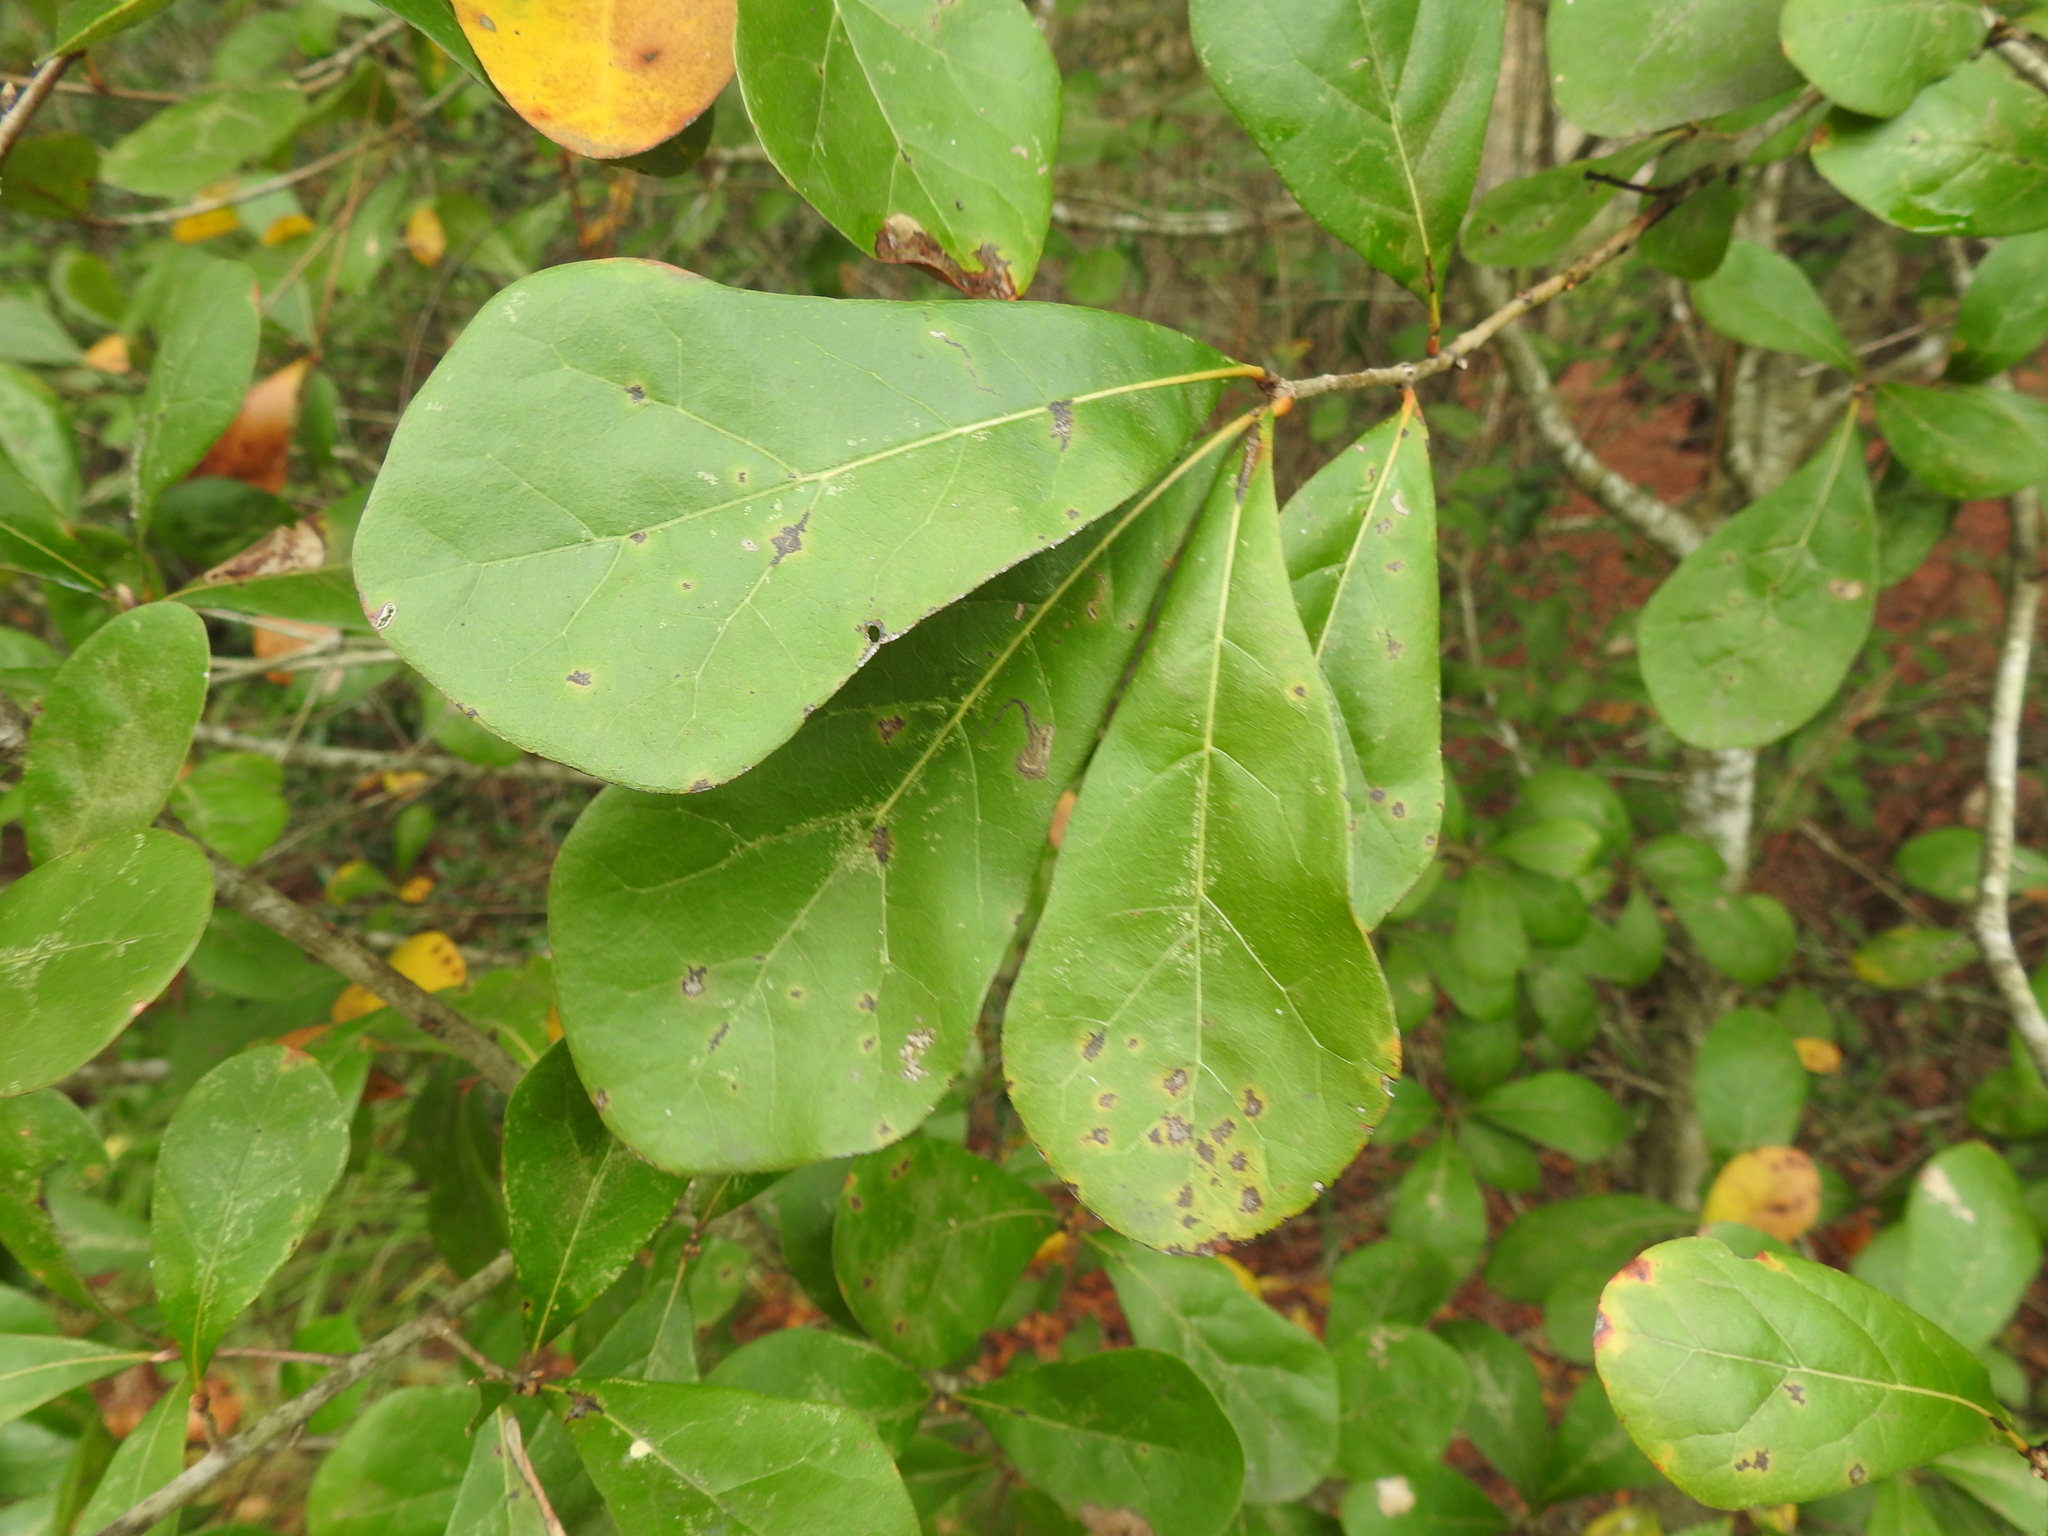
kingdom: Plantae
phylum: Tracheophyta
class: Magnoliopsida
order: Fagales
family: Fagaceae
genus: Quercus
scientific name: Quercus nigra
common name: Water oak
